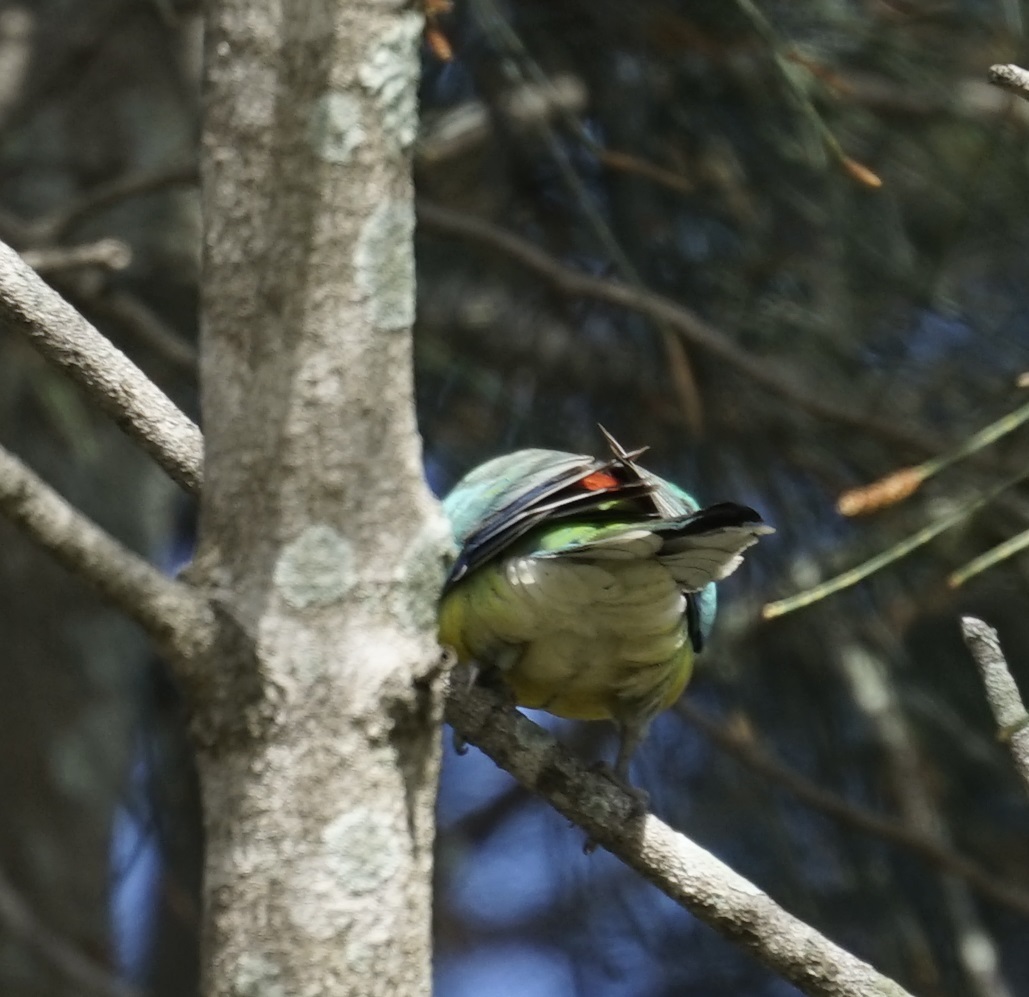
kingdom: Animalia
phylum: Chordata
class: Aves
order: Psittaciformes
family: Psittacidae
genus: Psephotus
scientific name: Psephotus haematonotus
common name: Red-rumped parrot
